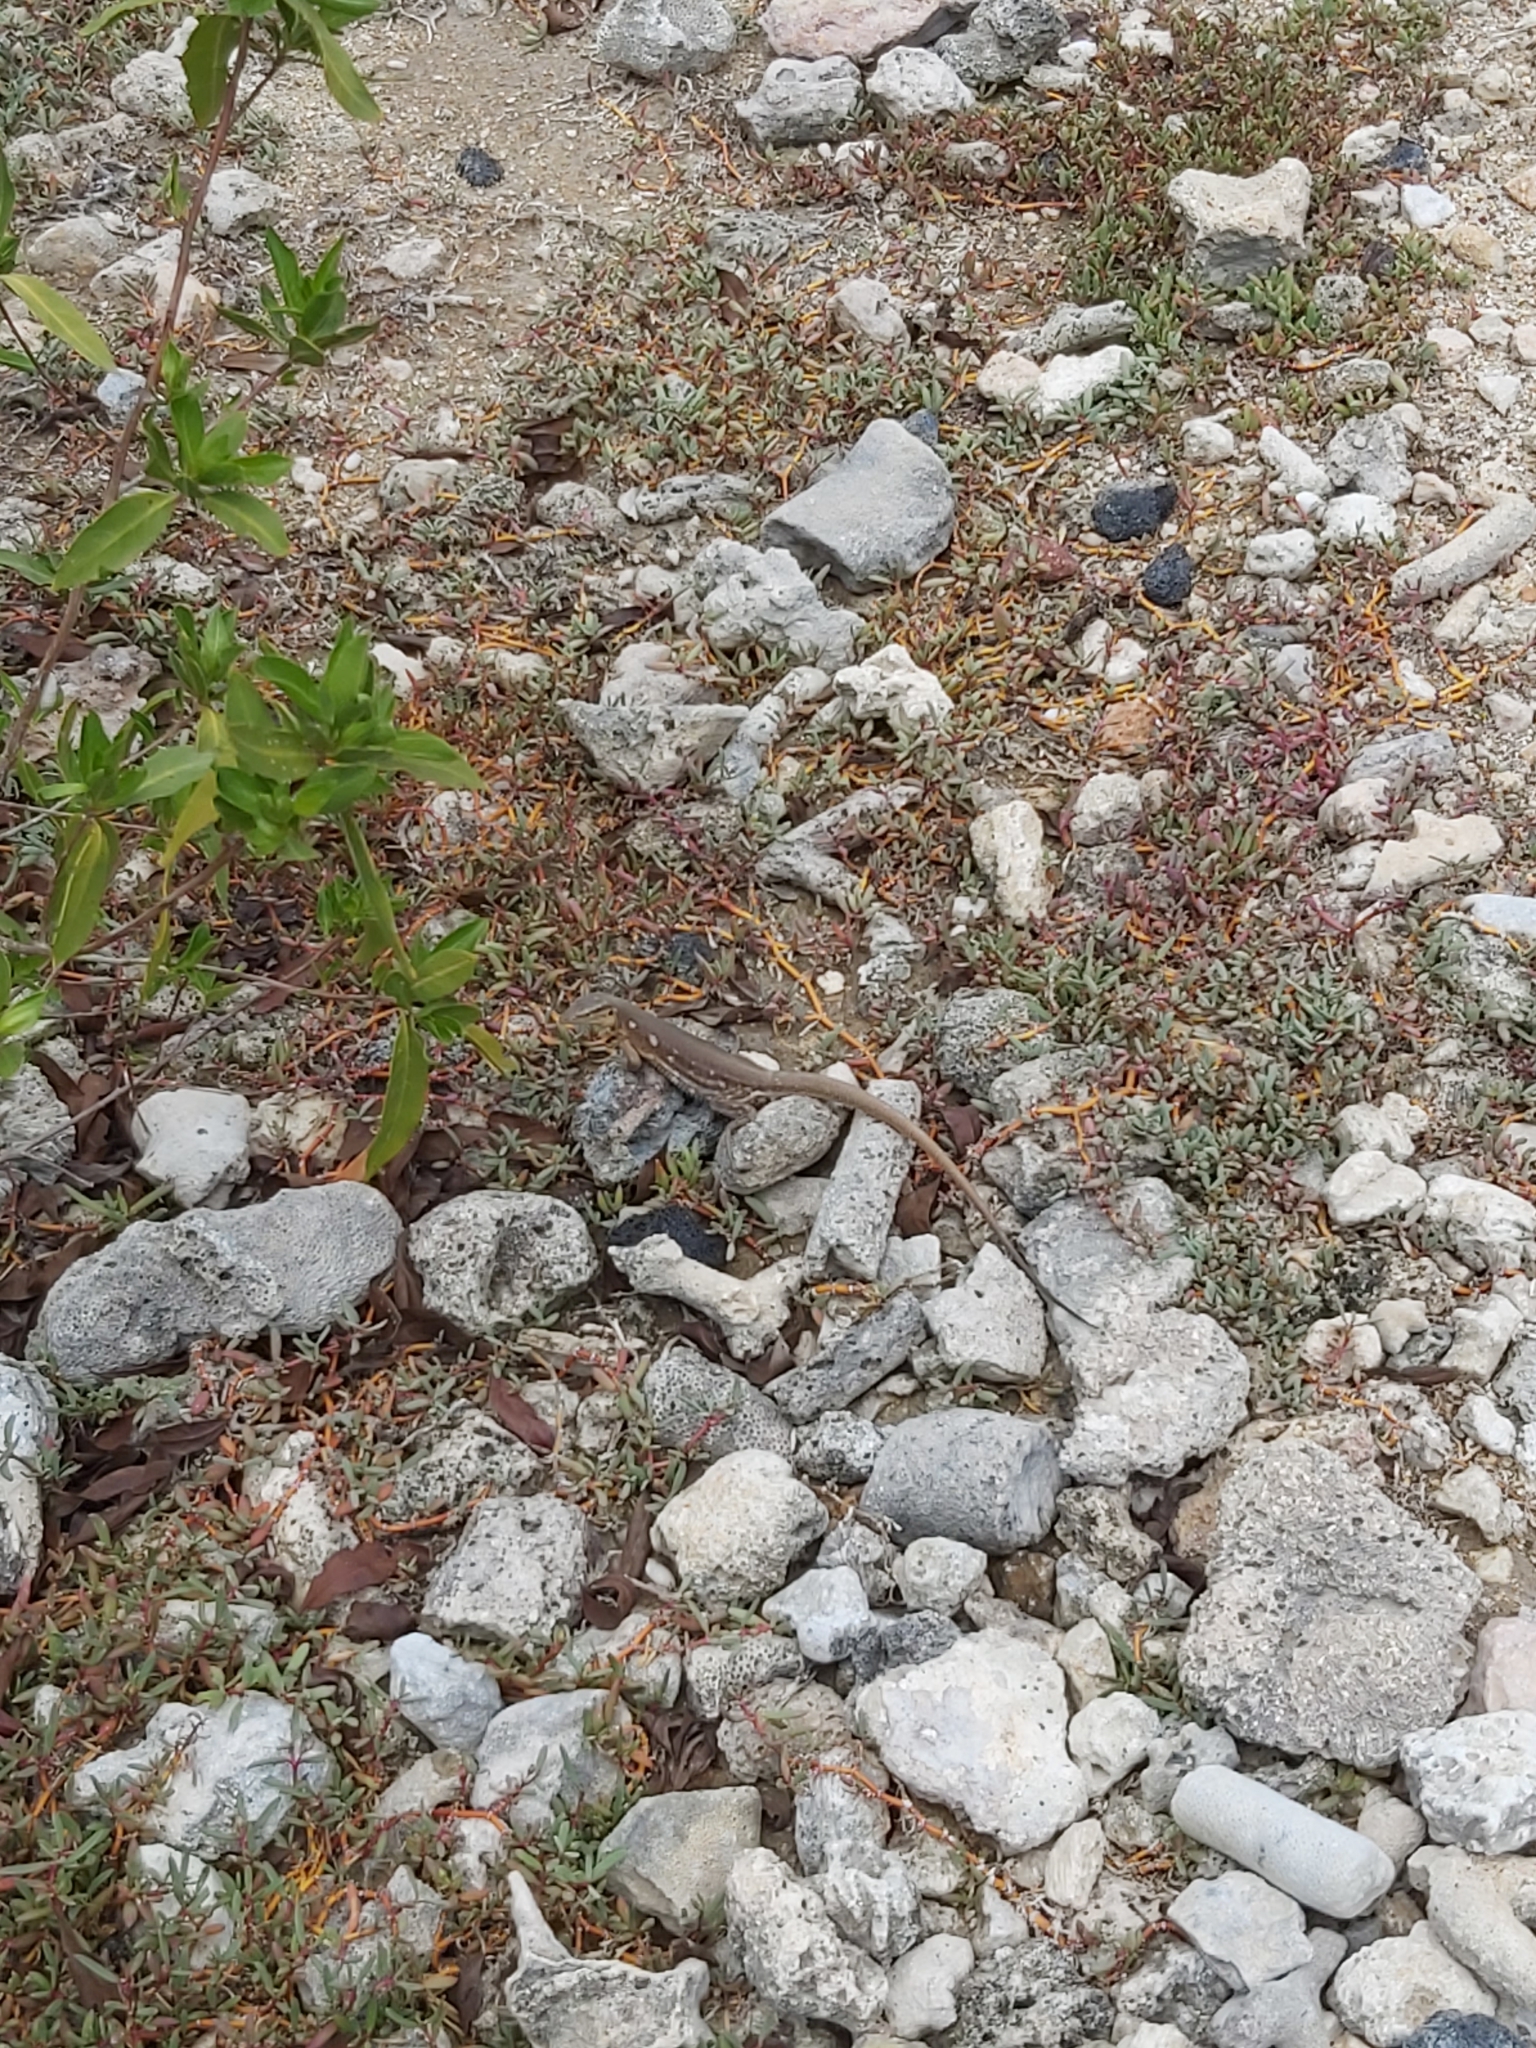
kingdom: Animalia
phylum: Chordata
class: Squamata
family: Teiidae
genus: Cnemidophorus
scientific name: Cnemidophorus murinus
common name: Laurent's whiptail
